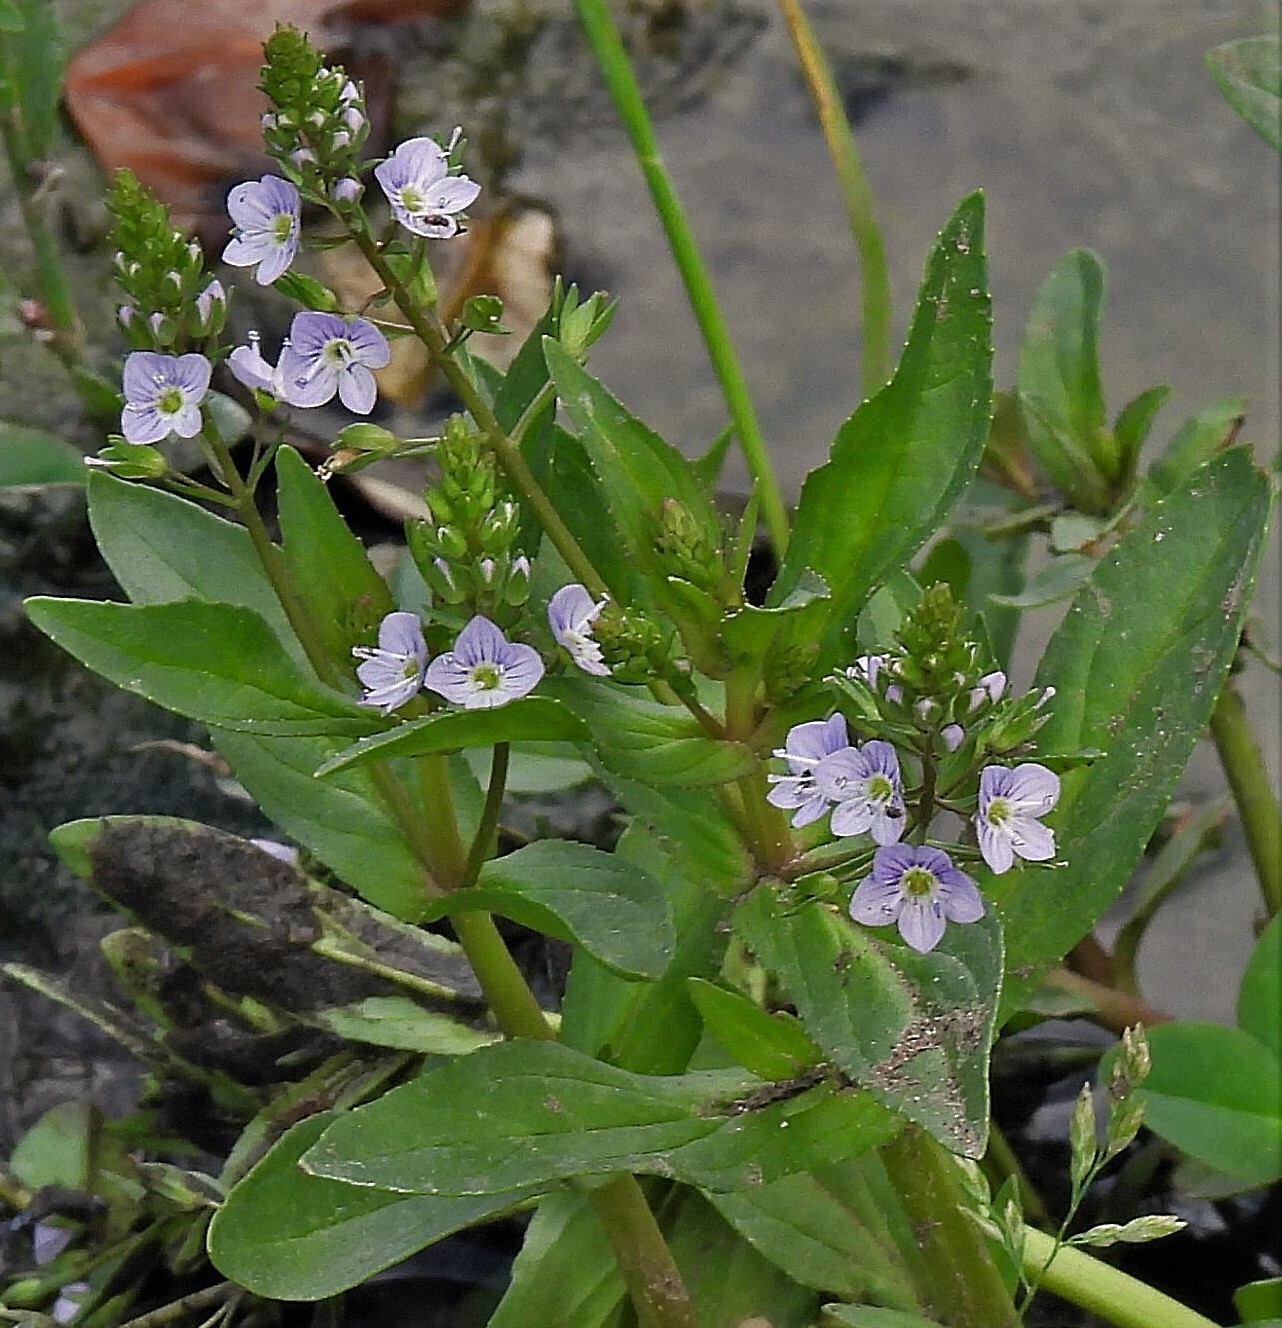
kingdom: Plantae
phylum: Tracheophyta
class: Magnoliopsida
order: Lamiales
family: Plantaginaceae
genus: Veronica
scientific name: Veronica anagallis-aquatica
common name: Water speedwell
